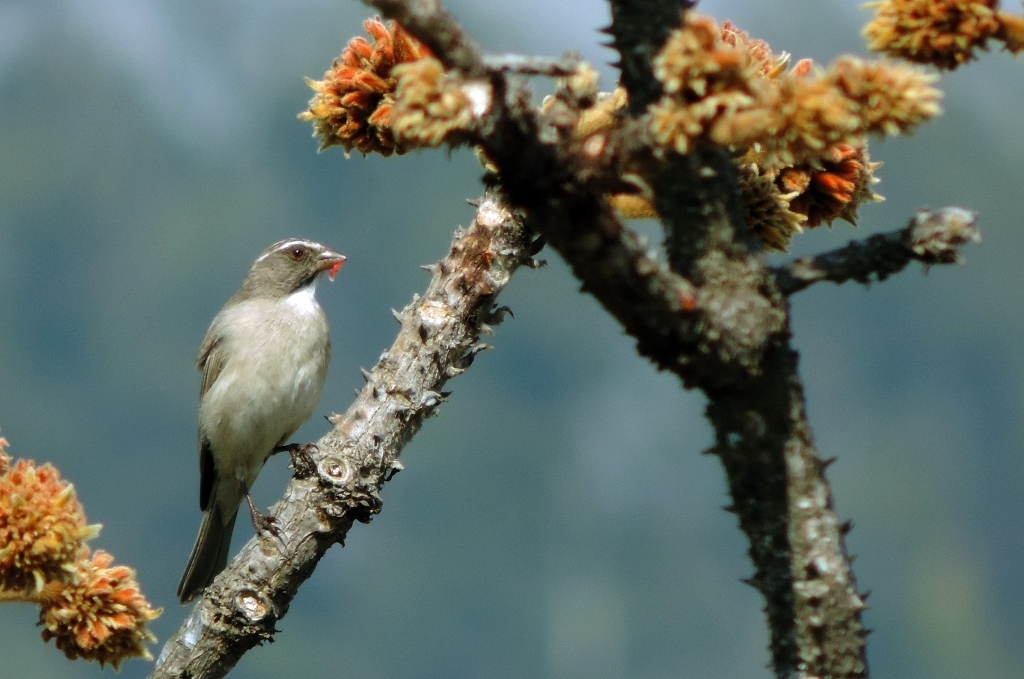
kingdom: Animalia
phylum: Chordata
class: Aves
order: Passeriformes
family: Fringillidae
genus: Crithagra
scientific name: Crithagra gularis
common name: Streaky-headed seedeater
